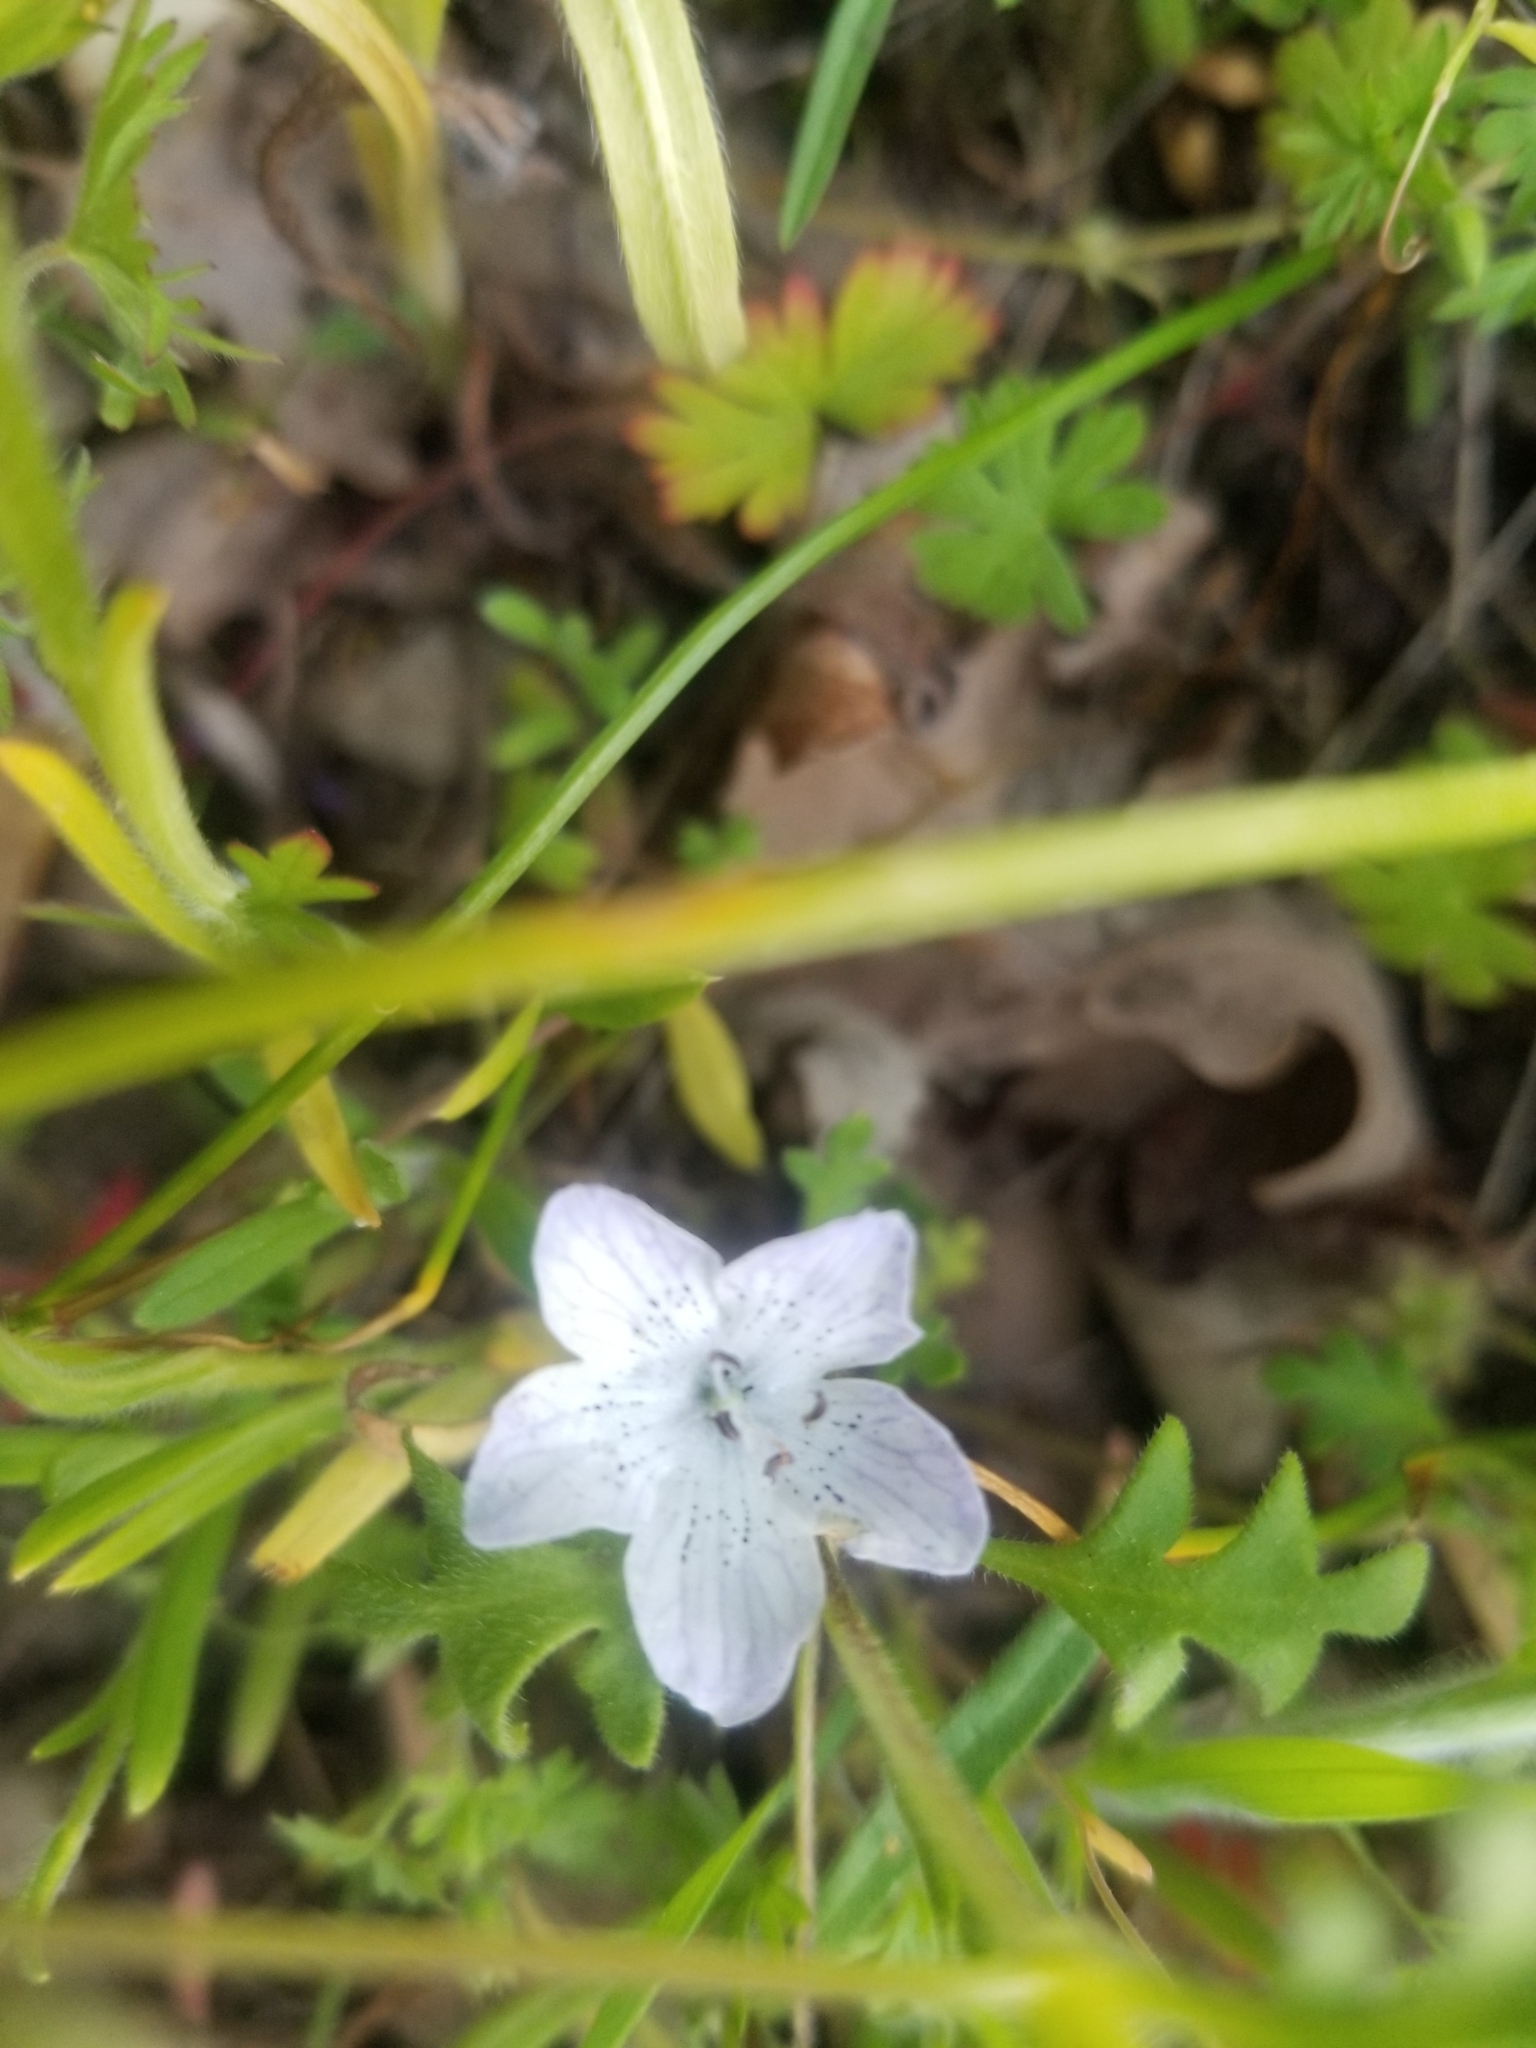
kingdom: Plantae
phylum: Tracheophyta
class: Magnoliopsida
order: Boraginales
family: Hydrophyllaceae
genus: Nemophila
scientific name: Nemophila menziesii
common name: Baby's-blue-eyes
